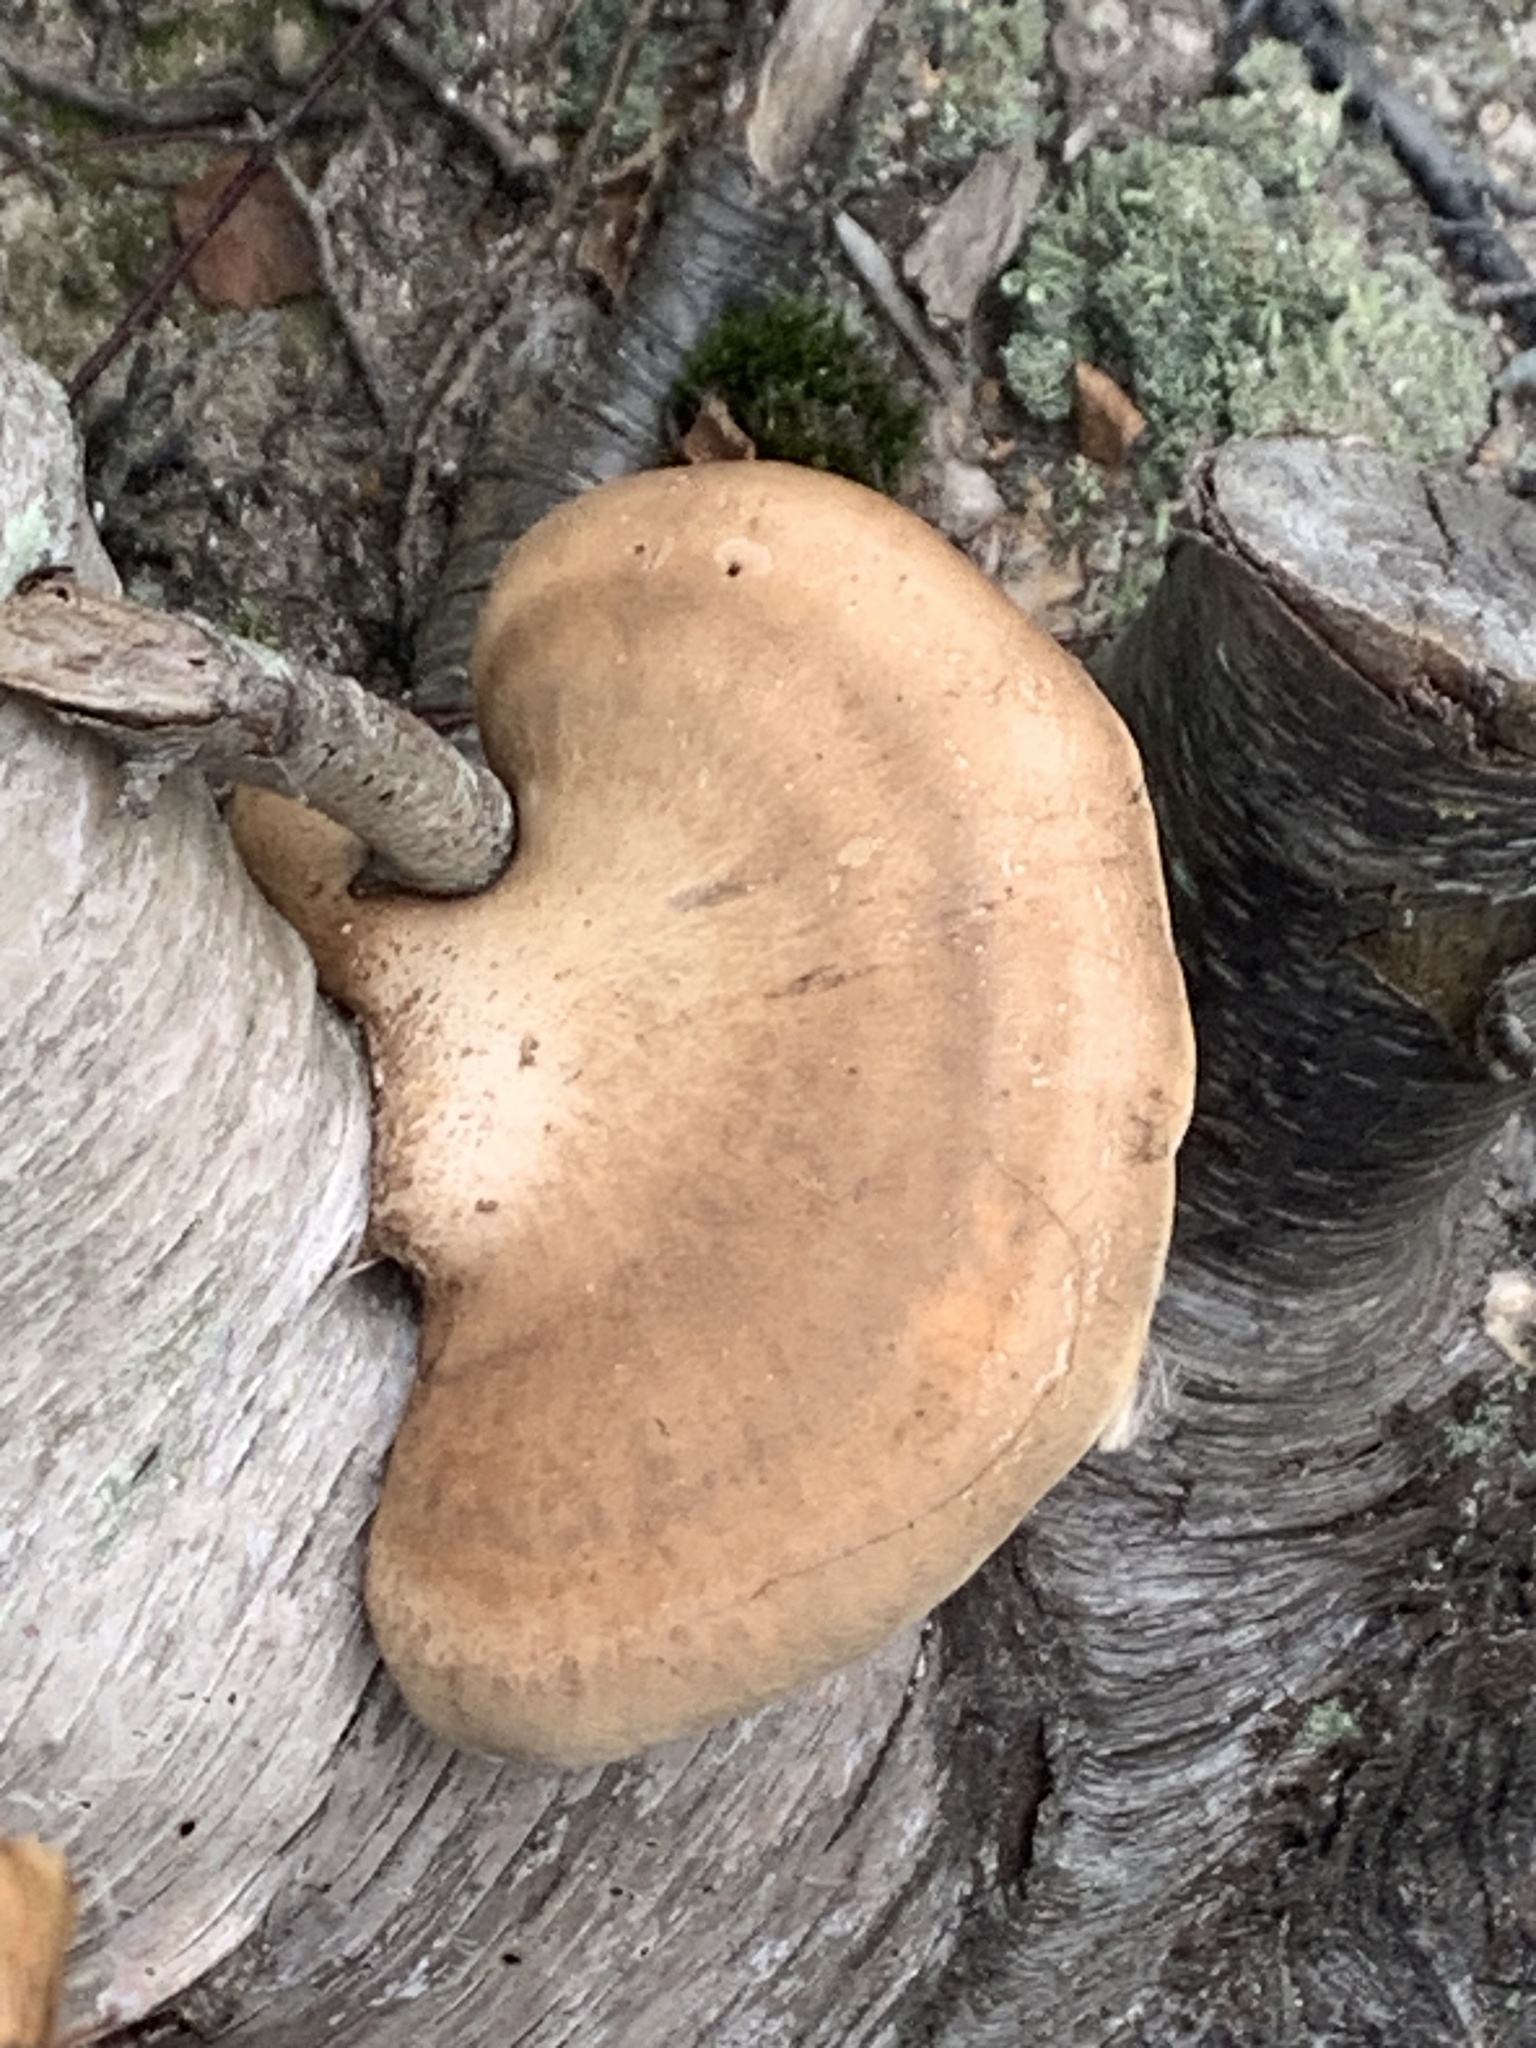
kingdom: Fungi
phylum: Basidiomycota
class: Agaricomycetes
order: Polyporales
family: Fomitopsidaceae
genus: Fomitopsis
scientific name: Fomitopsis betulina
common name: Birch polypore
